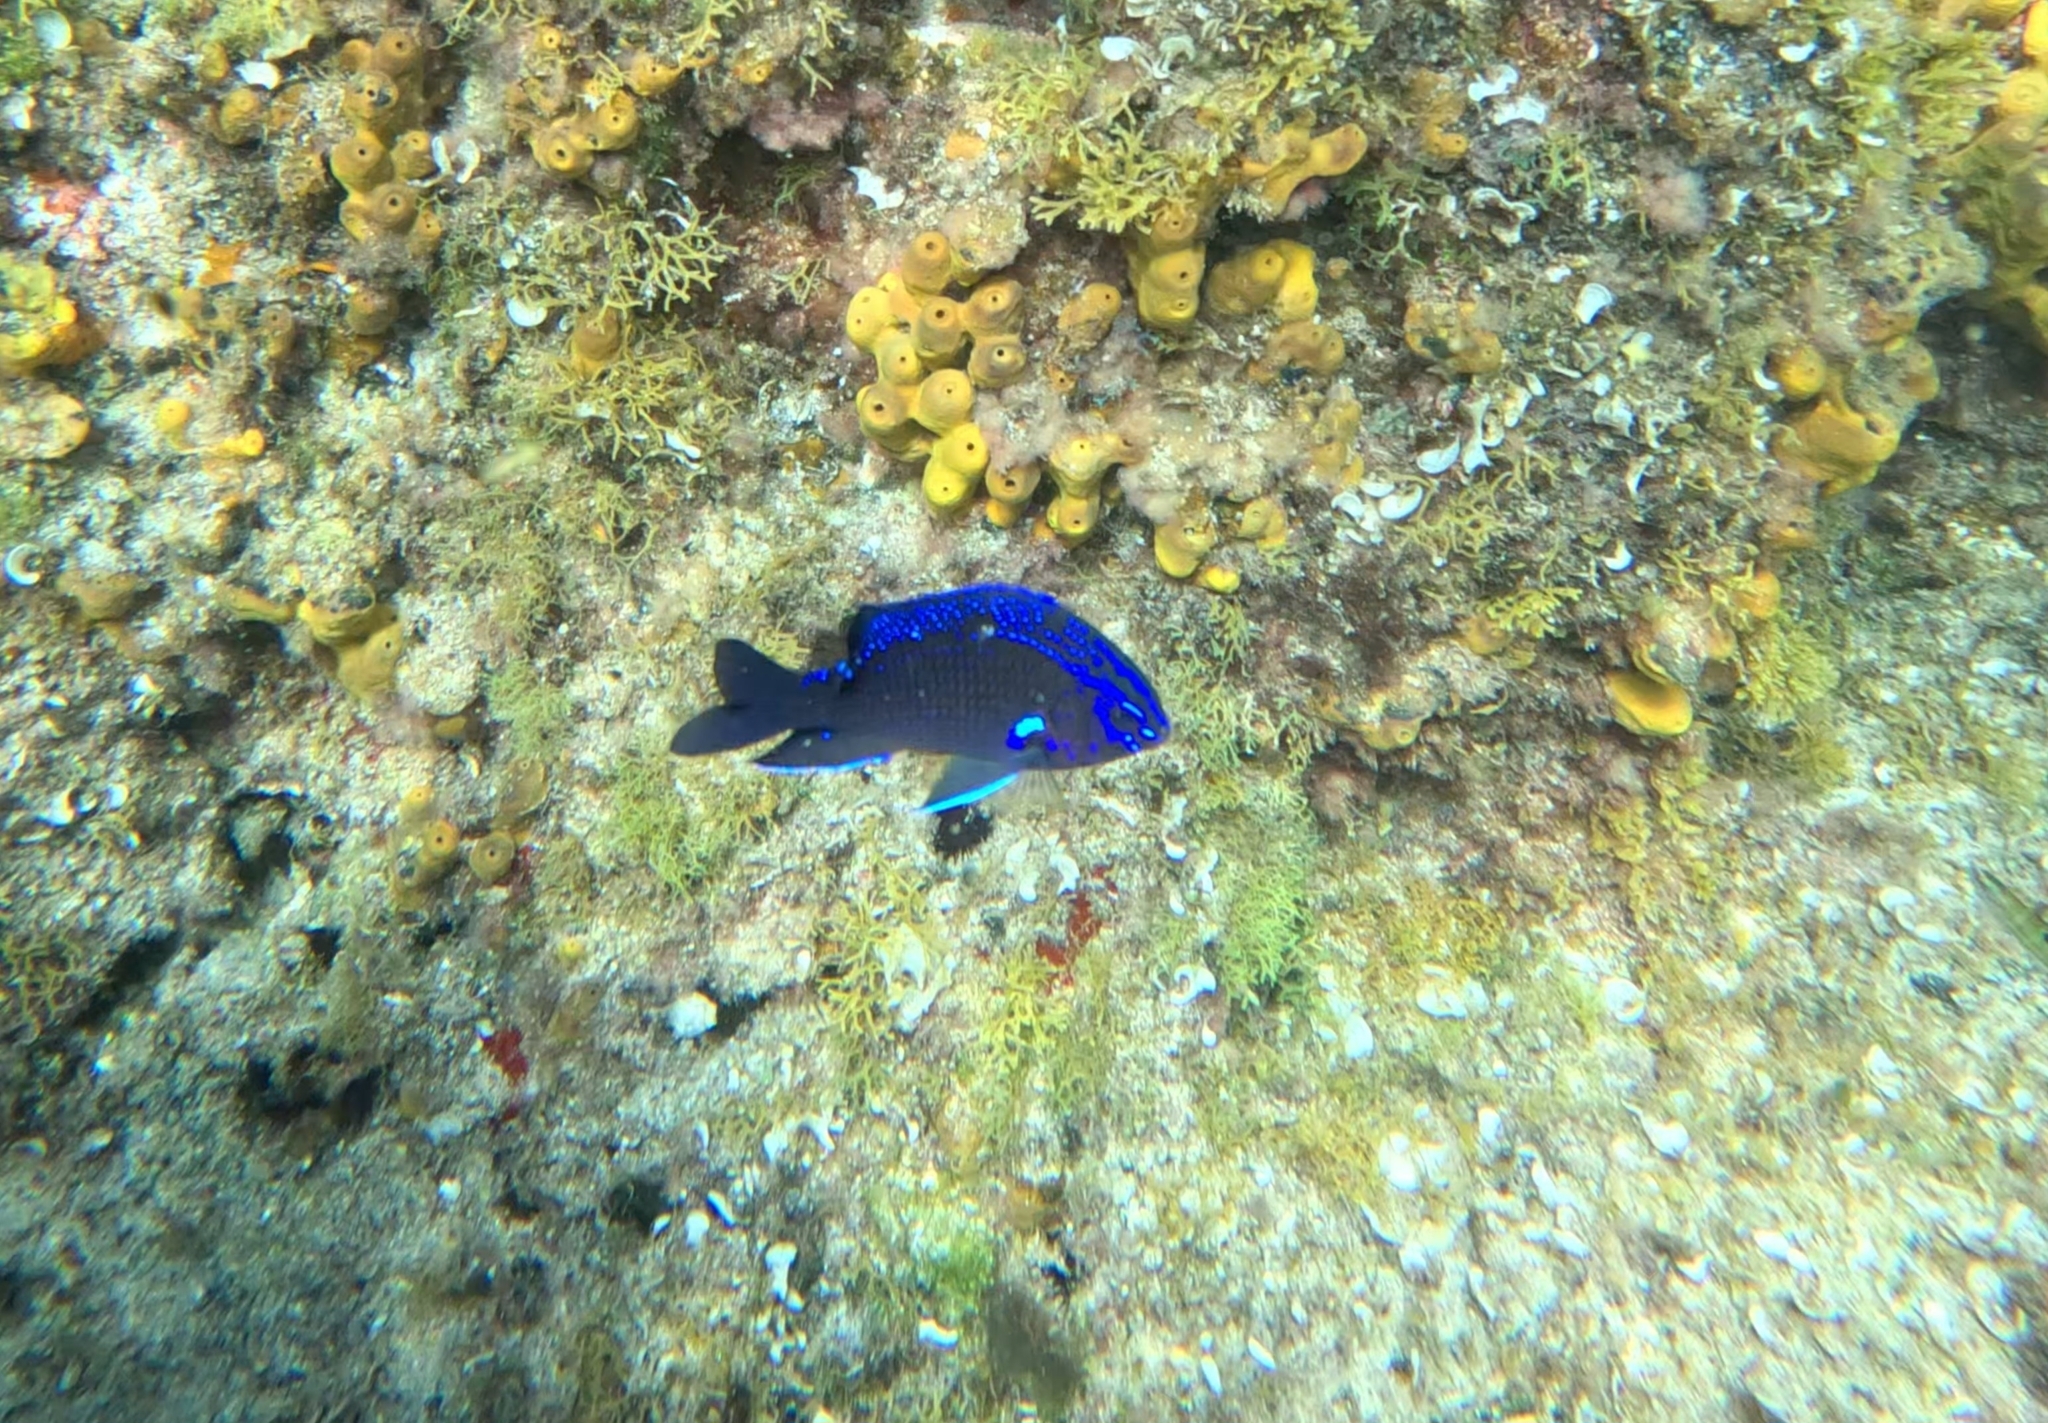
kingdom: Animalia
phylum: Chordata
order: Perciformes
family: Pomacentridae
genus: Similiparma
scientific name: Similiparma lurida
